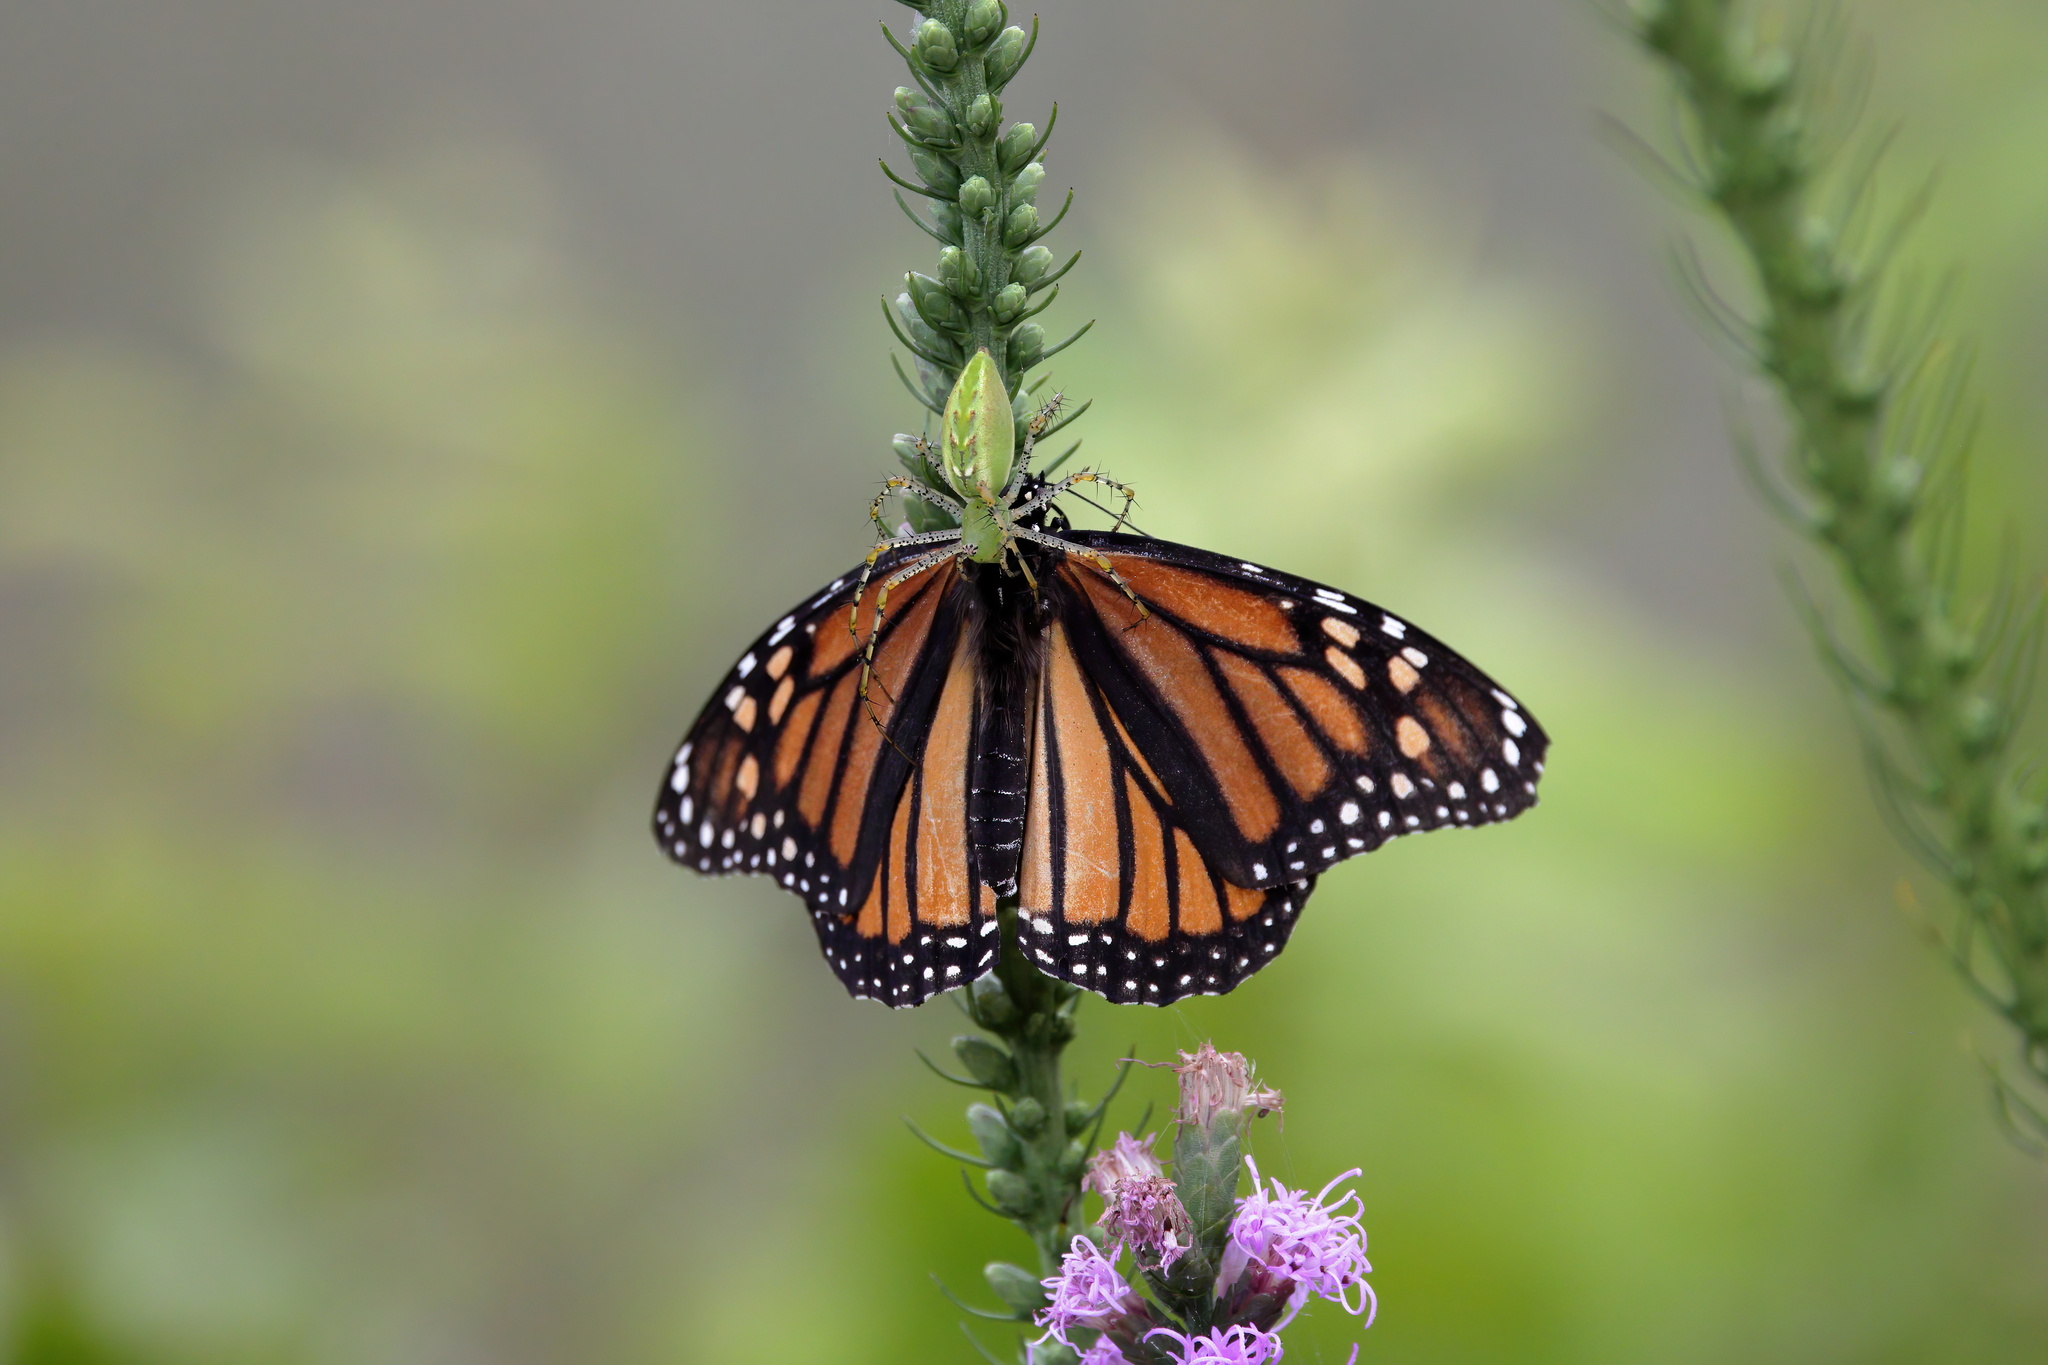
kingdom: Animalia
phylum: Arthropoda
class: Insecta
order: Lepidoptera
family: Nymphalidae
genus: Danaus
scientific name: Danaus plexippus
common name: Monarch
